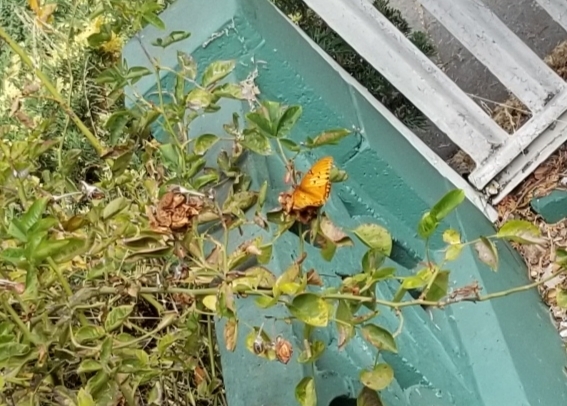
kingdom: Animalia
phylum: Arthropoda
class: Insecta
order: Lepidoptera
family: Nymphalidae
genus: Dione
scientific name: Dione vanillae
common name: Gulf fritillary
